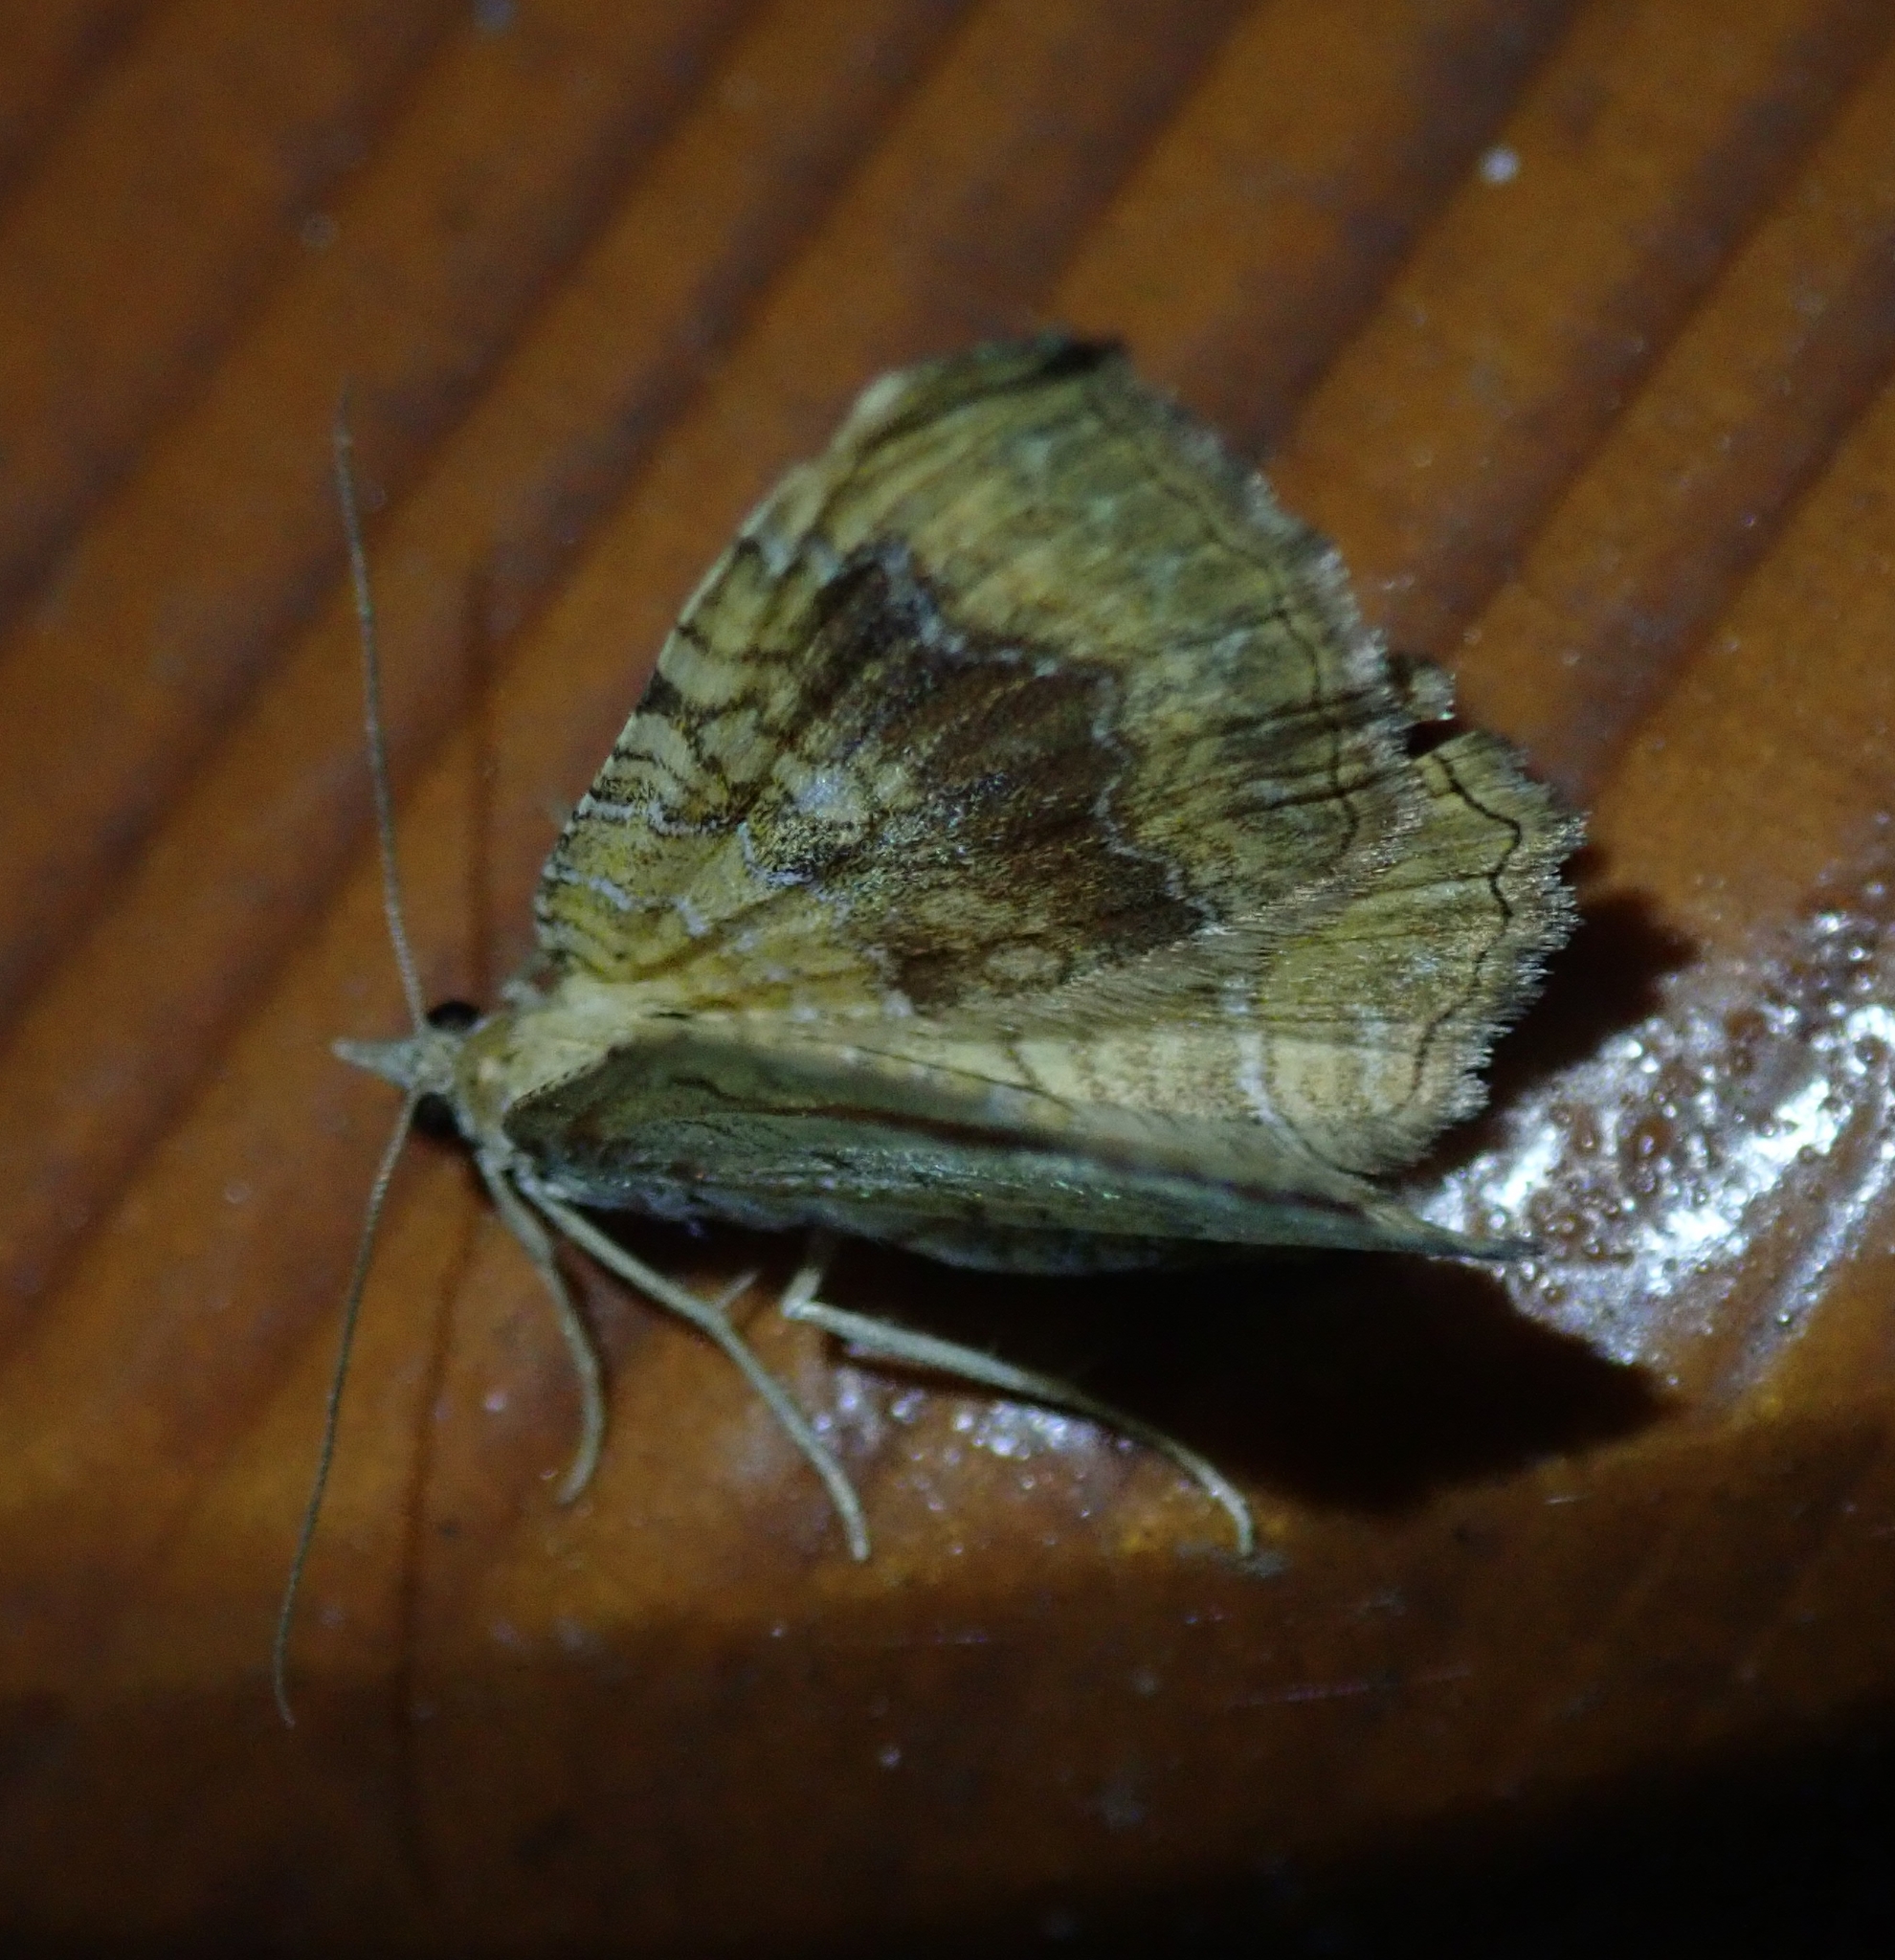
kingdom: Animalia
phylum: Arthropoda
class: Insecta
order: Lepidoptera
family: Geometridae
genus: Camptogramma
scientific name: Camptogramma bilineata
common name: Yellow shell
